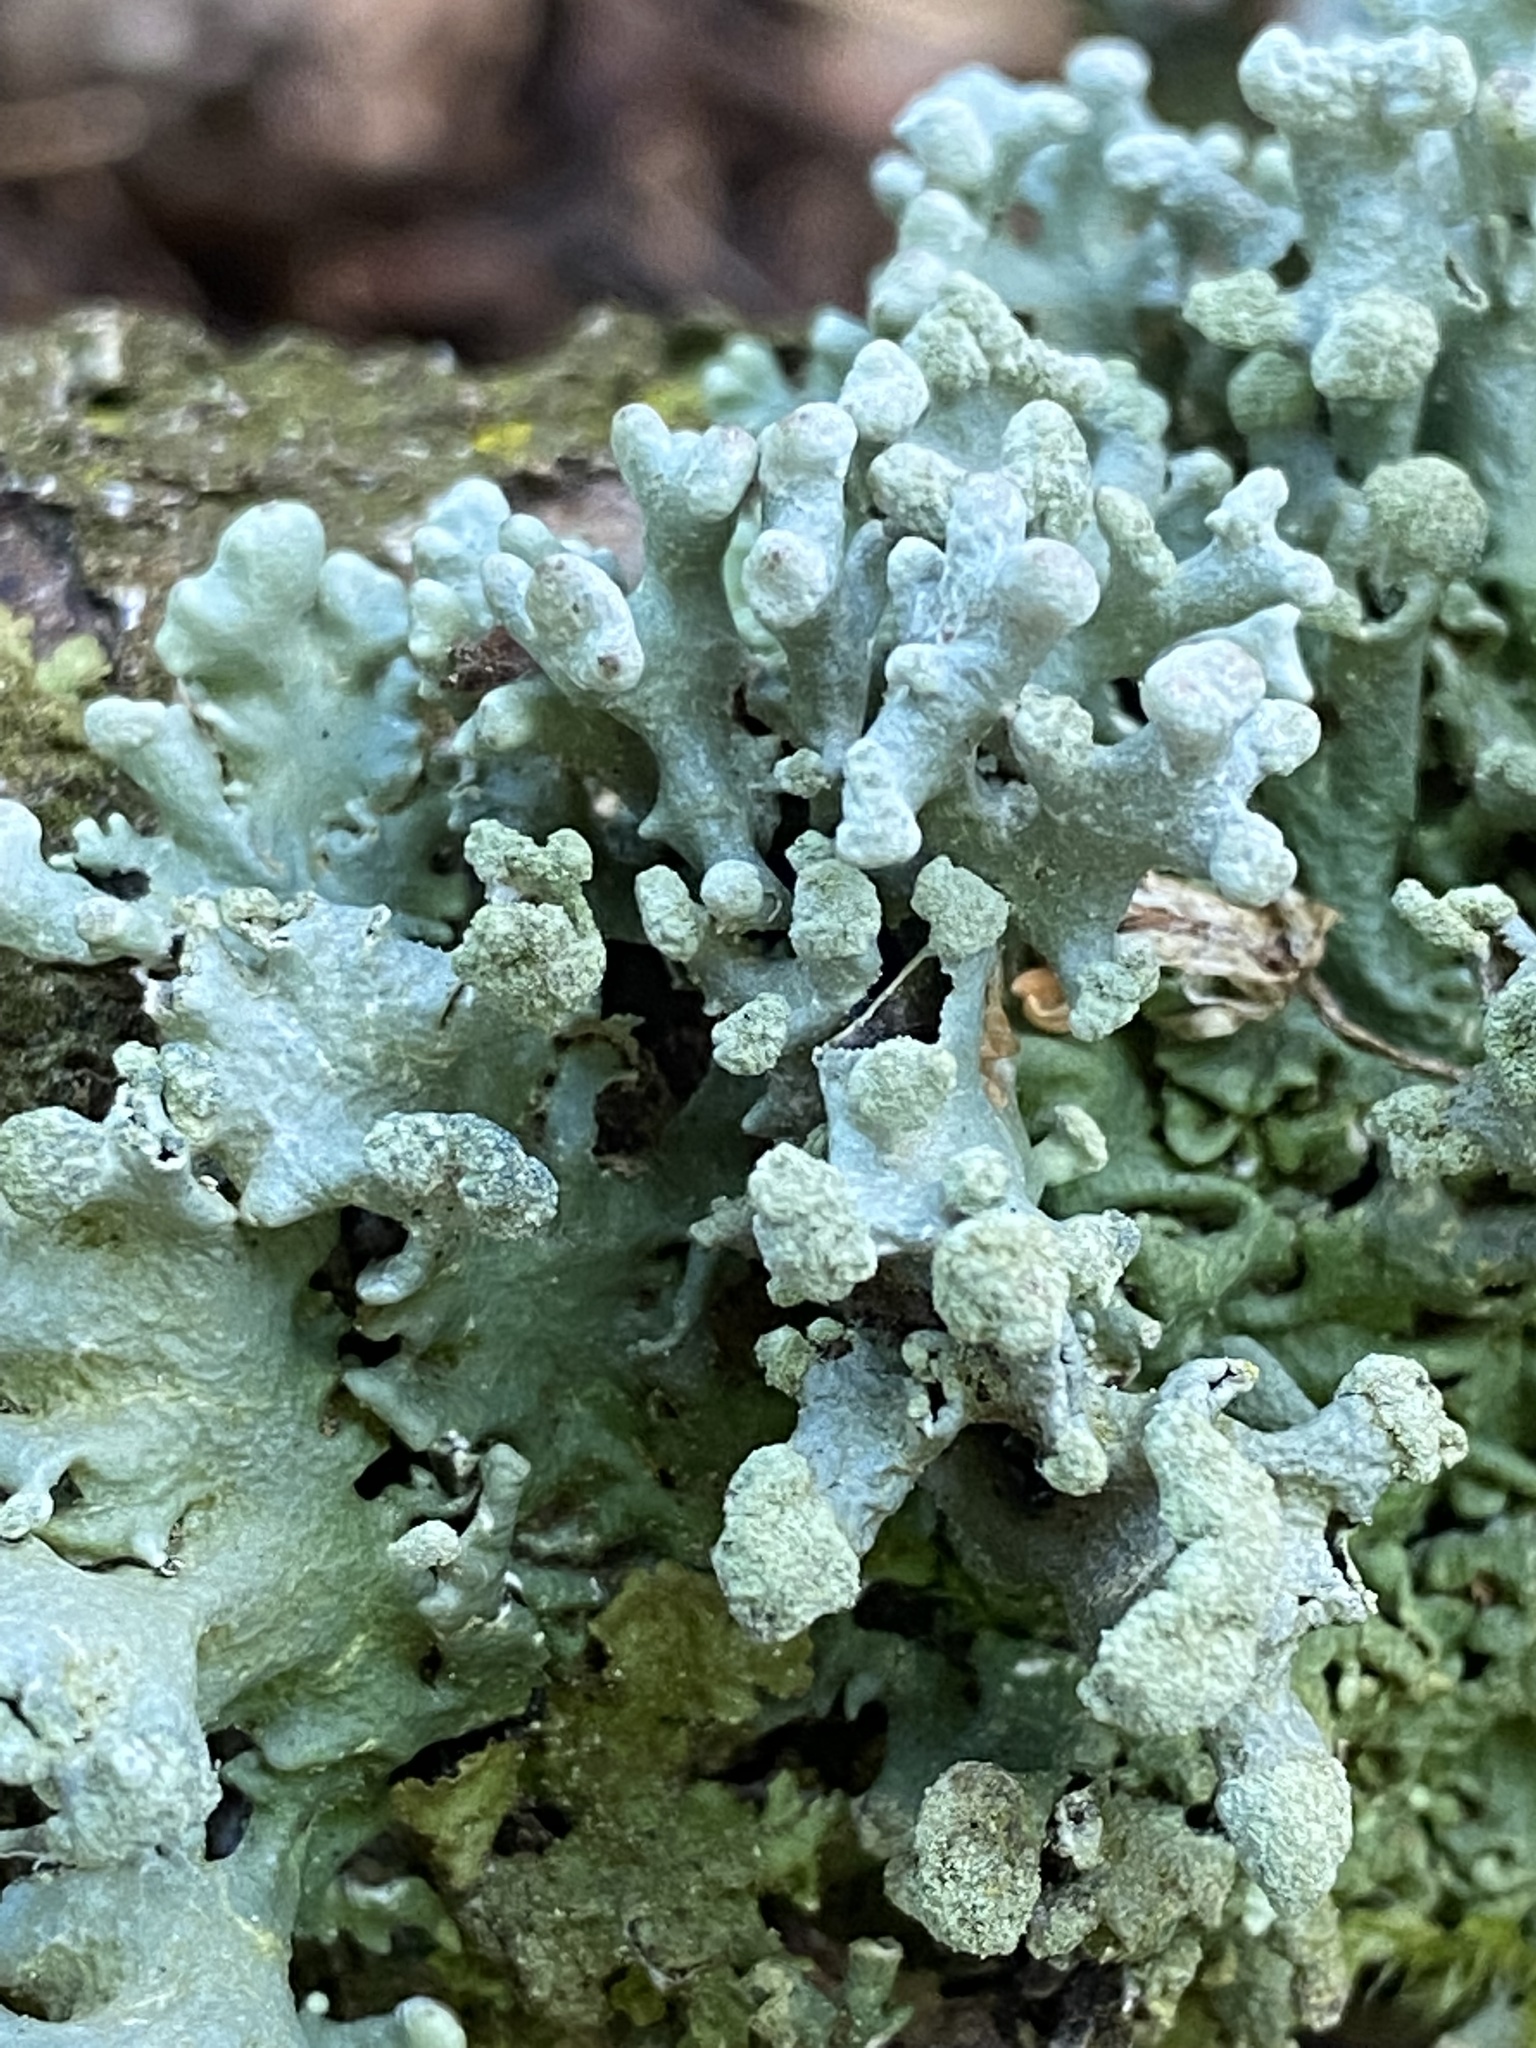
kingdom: Fungi
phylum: Ascomycota
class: Lecanoromycetes
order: Lecanorales
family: Parmeliaceae
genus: Hypogymnia
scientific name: Hypogymnia tubulosa
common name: Powder-headed tube lichen
